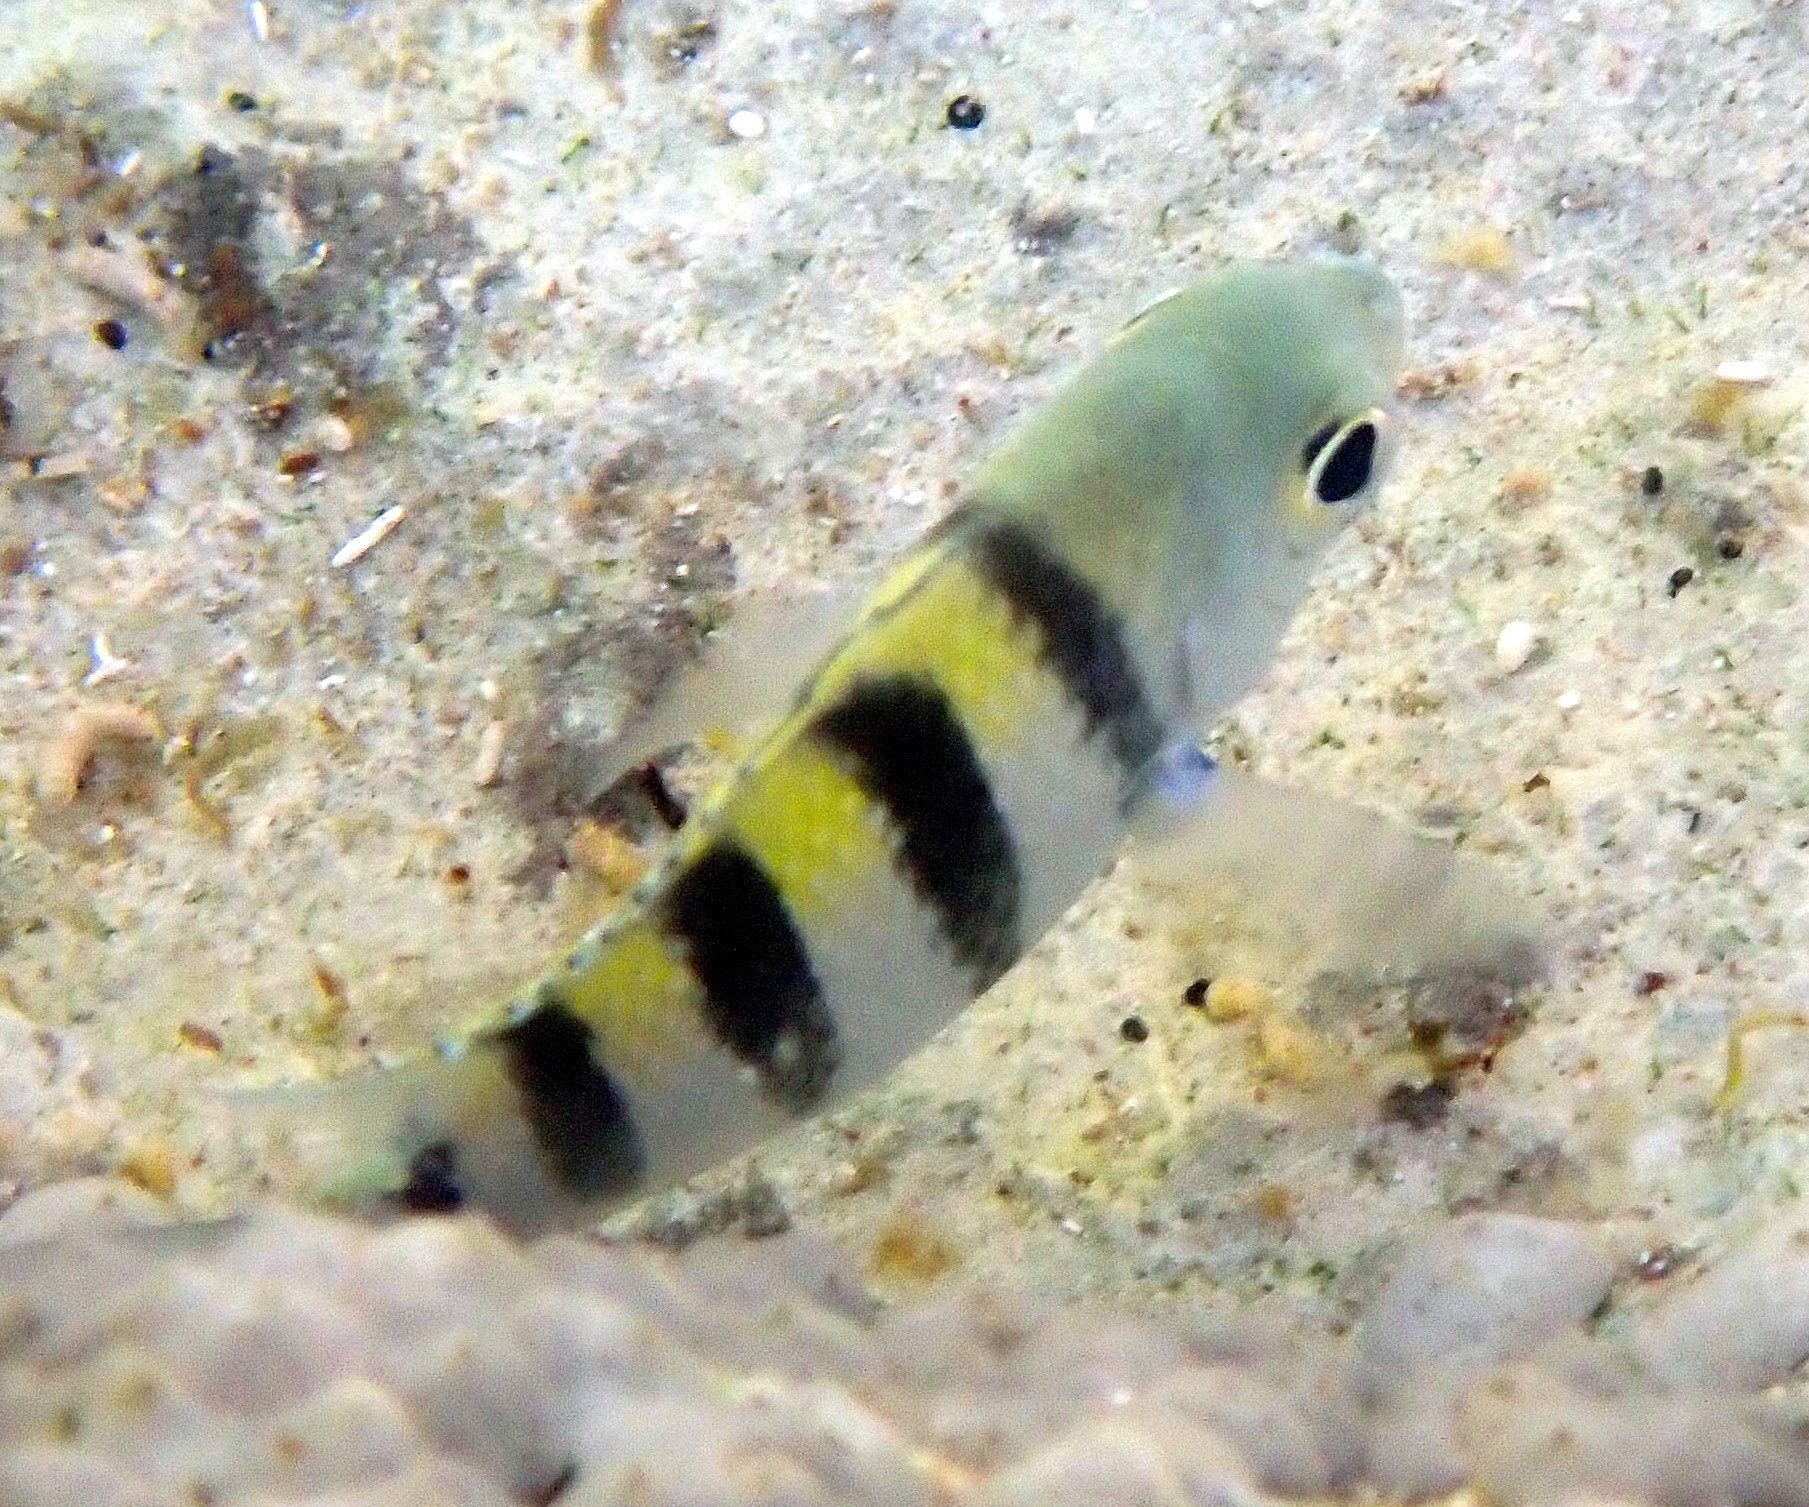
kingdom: Animalia
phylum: Chordata
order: Perciformes
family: Pomacentridae
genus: Abudefduf
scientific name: Abudefduf saxatilis
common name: Sergeant major
